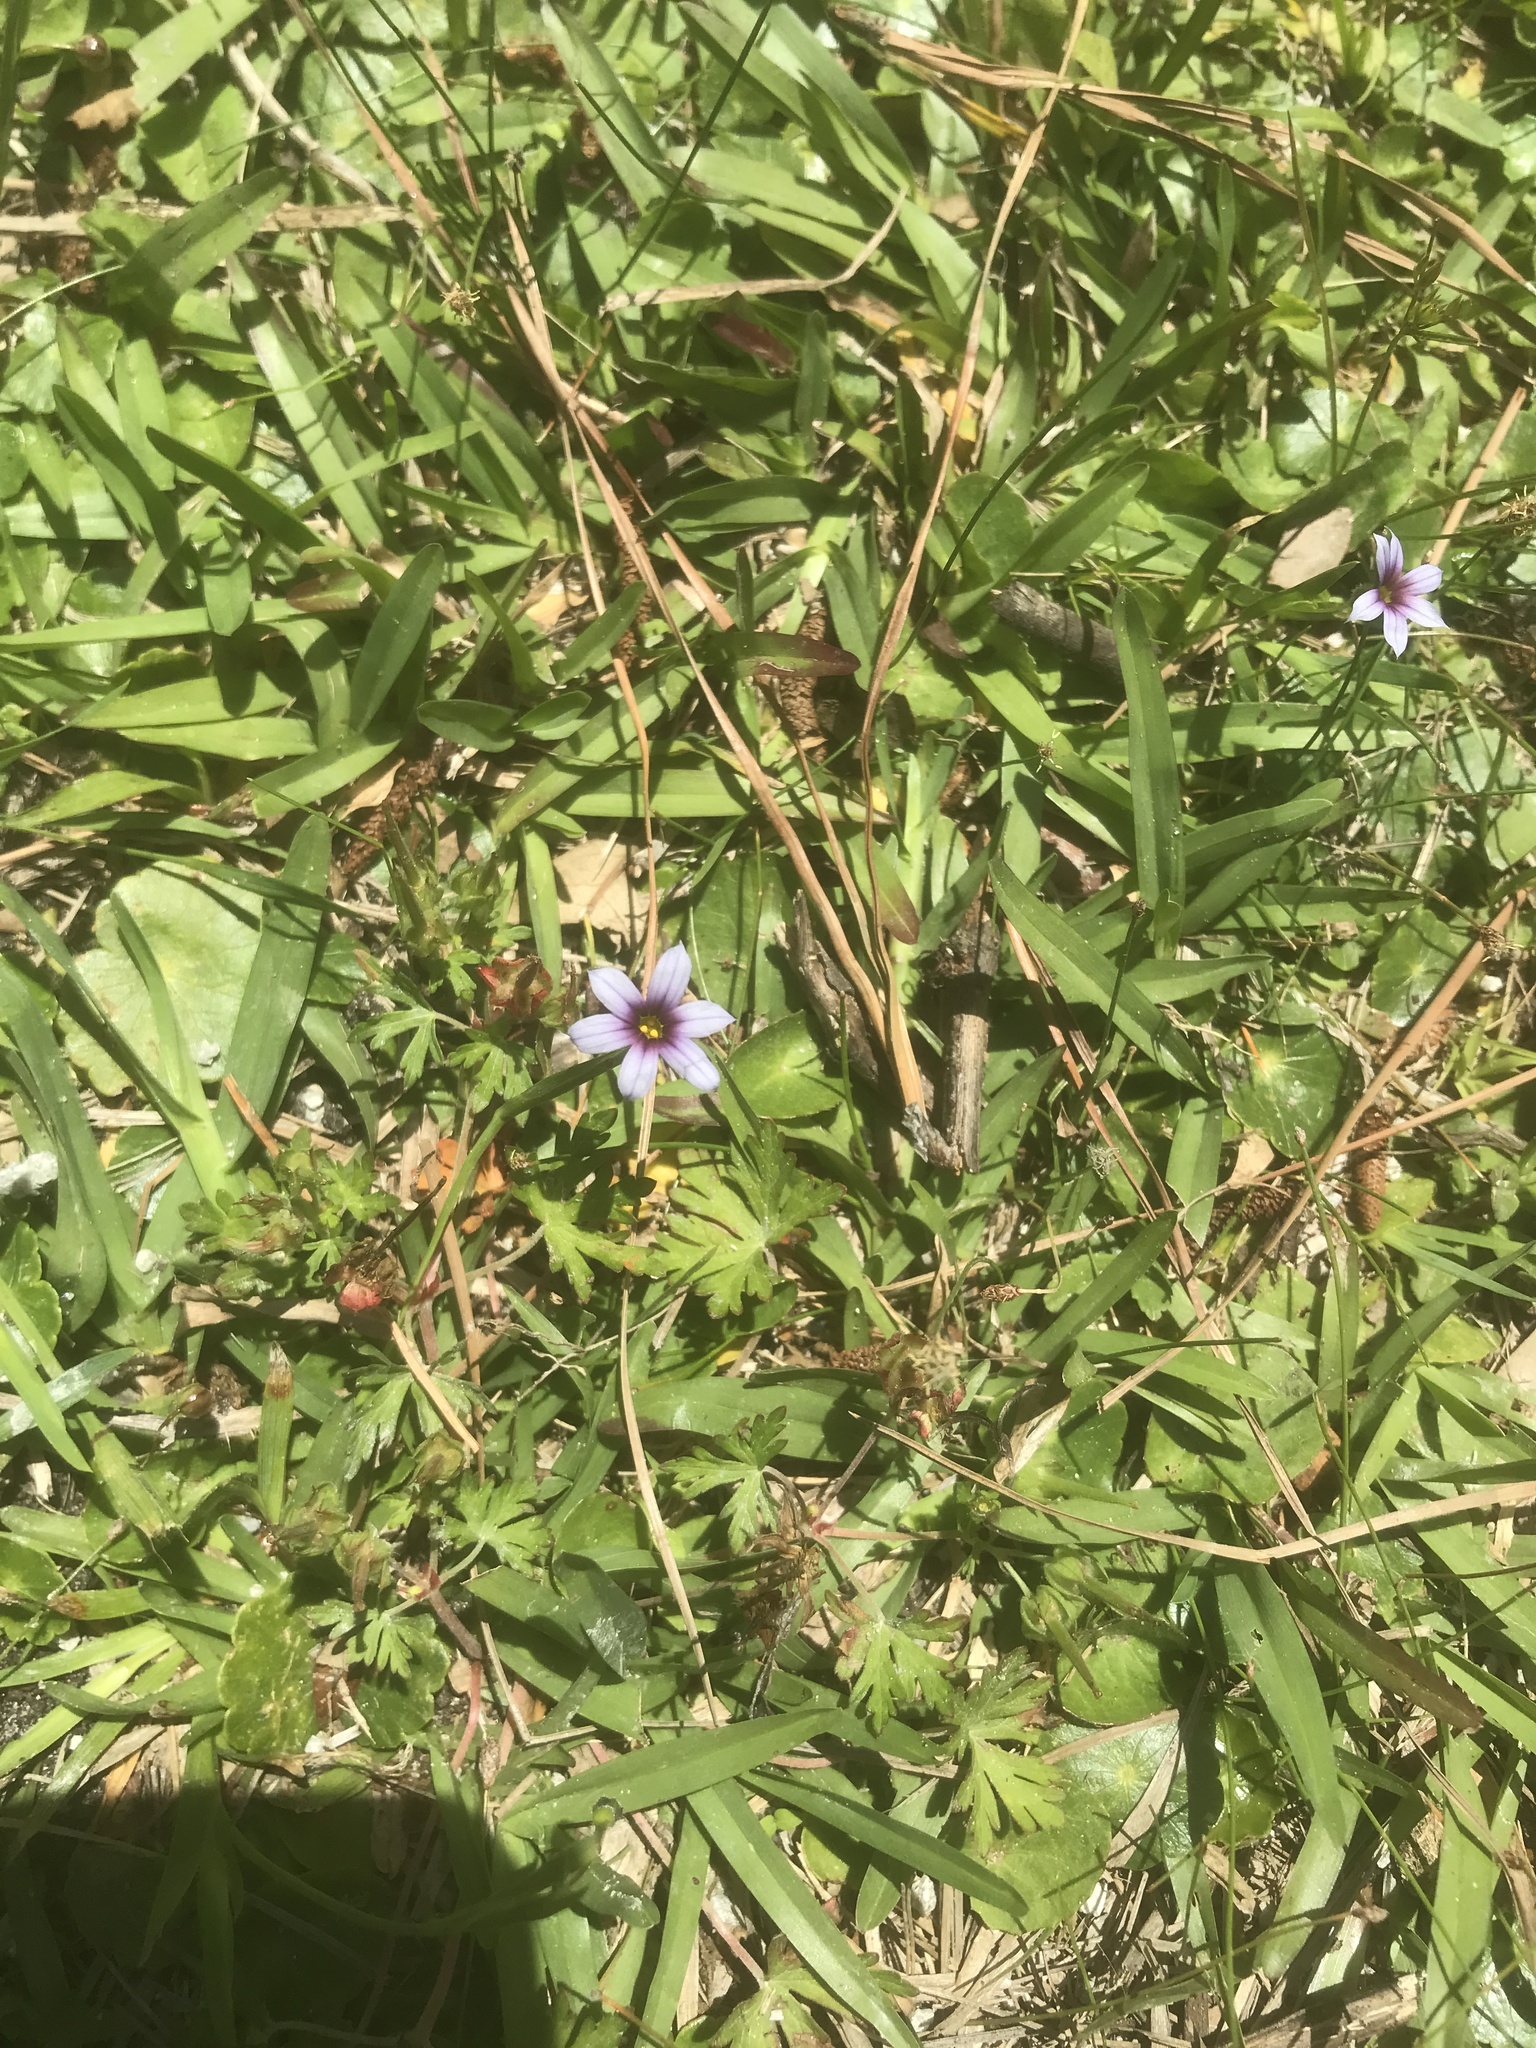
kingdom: Plantae
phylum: Tracheophyta
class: Liliopsida
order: Asparagales
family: Iridaceae
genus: Sisyrinchium
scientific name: Sisyrinchium micranthum
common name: Bermuda pigroot
